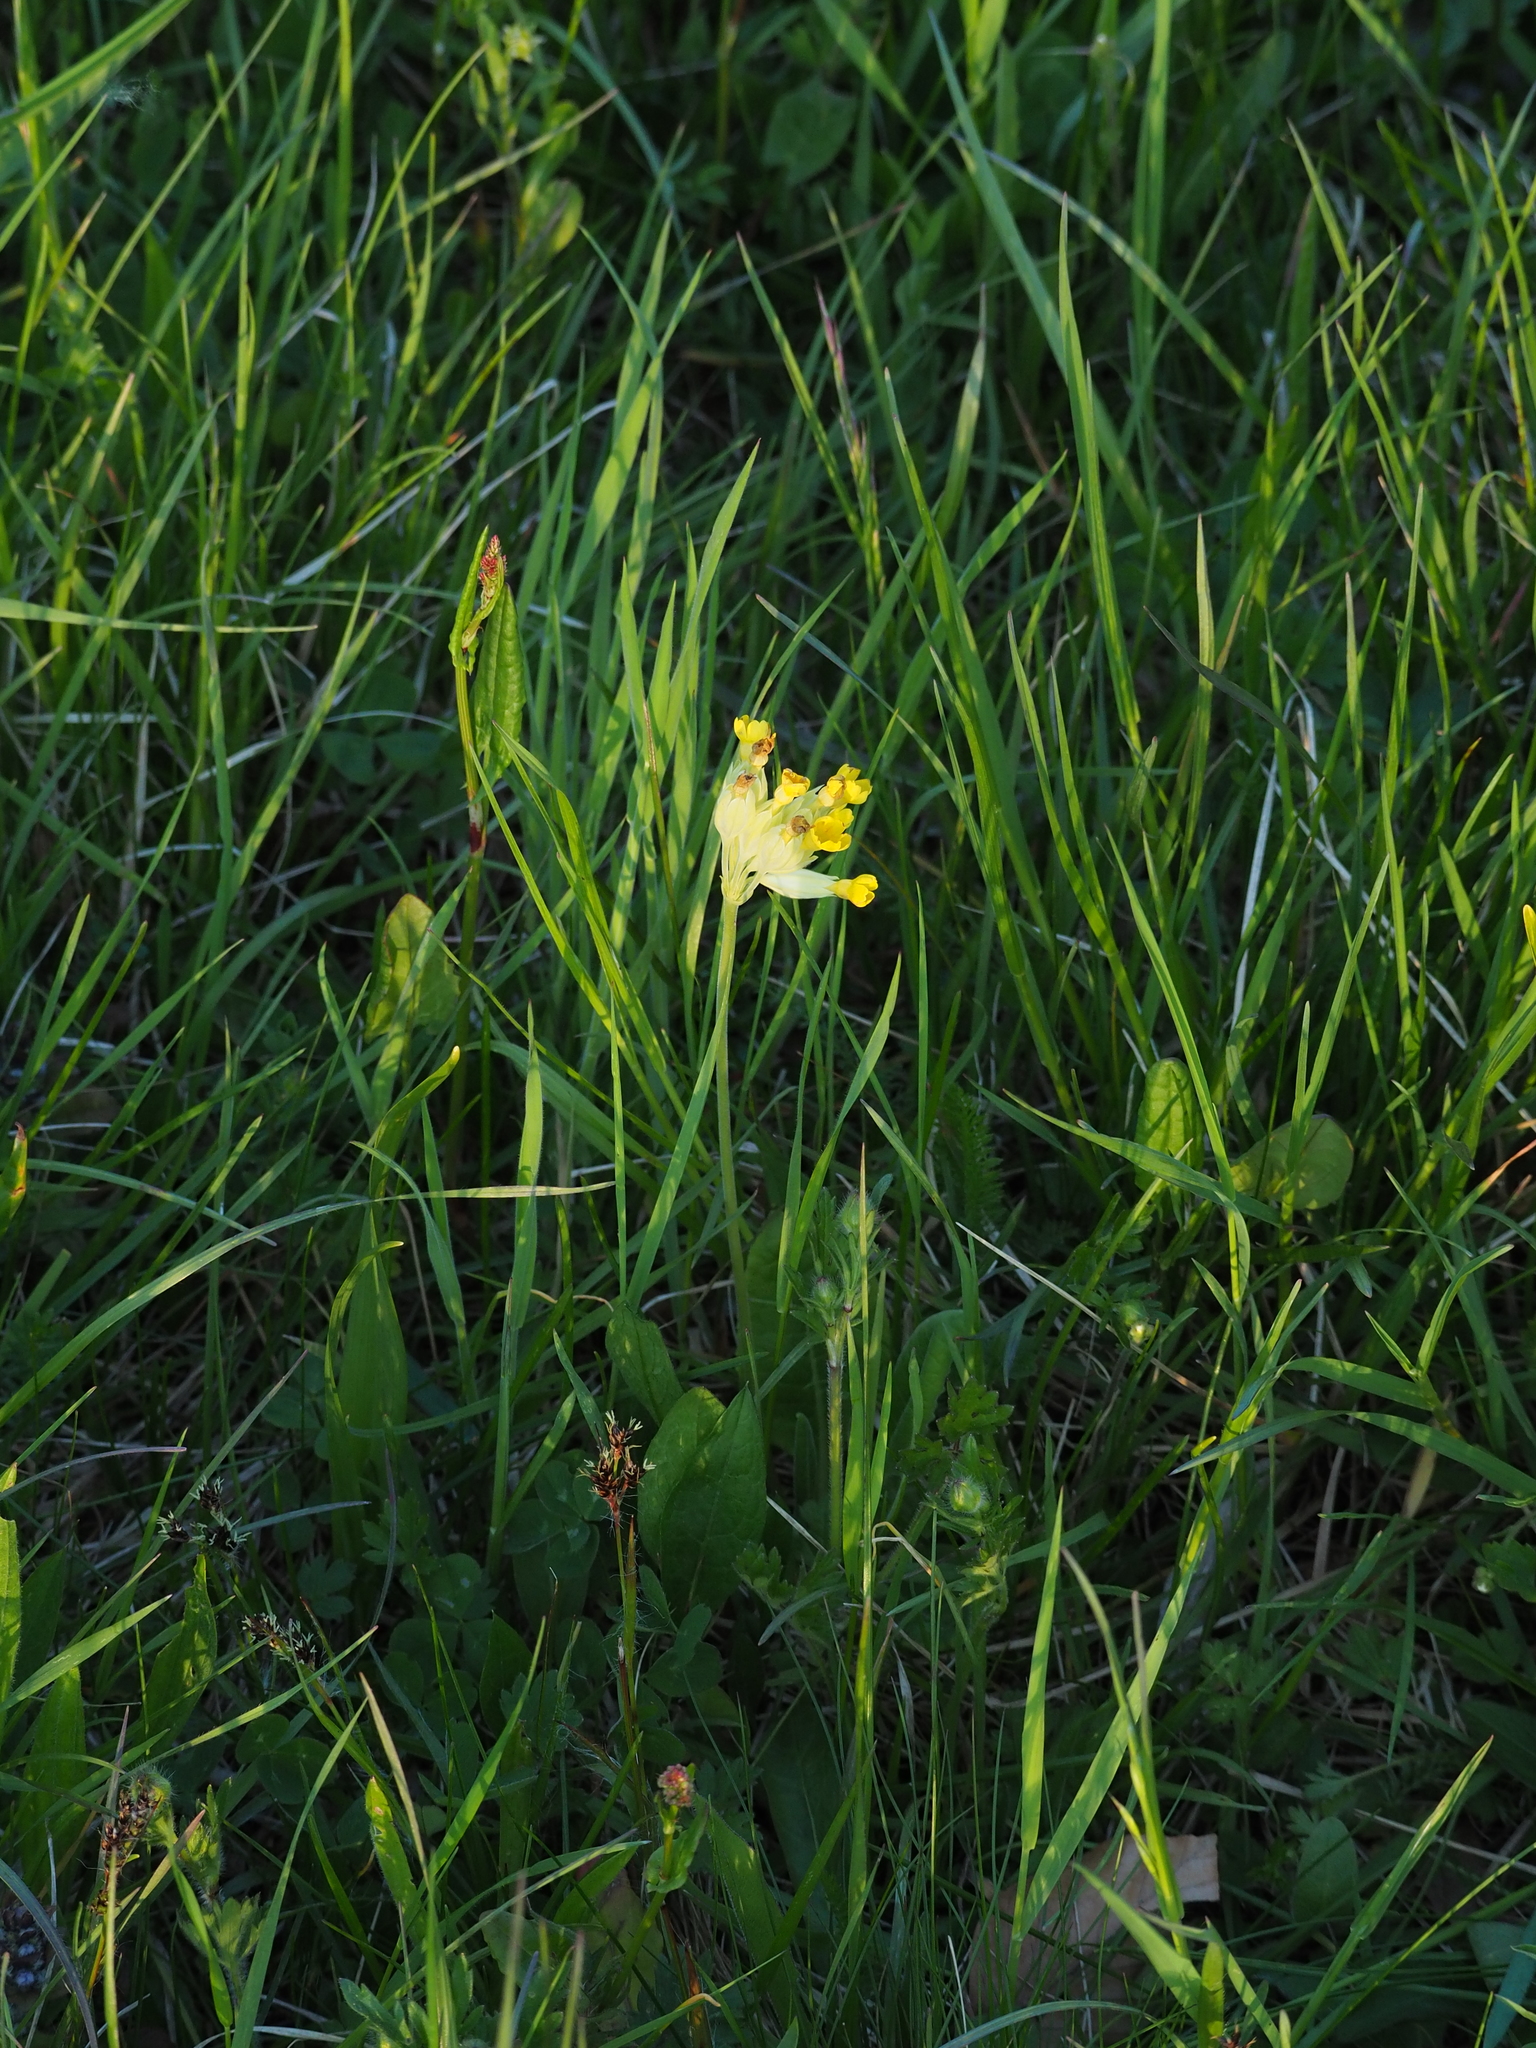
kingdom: Plantae
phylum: Tracheophyta
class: Magnoliopsida
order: Ericales
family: Primulaceae
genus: Primula
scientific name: Primula veris
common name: Cowslip
